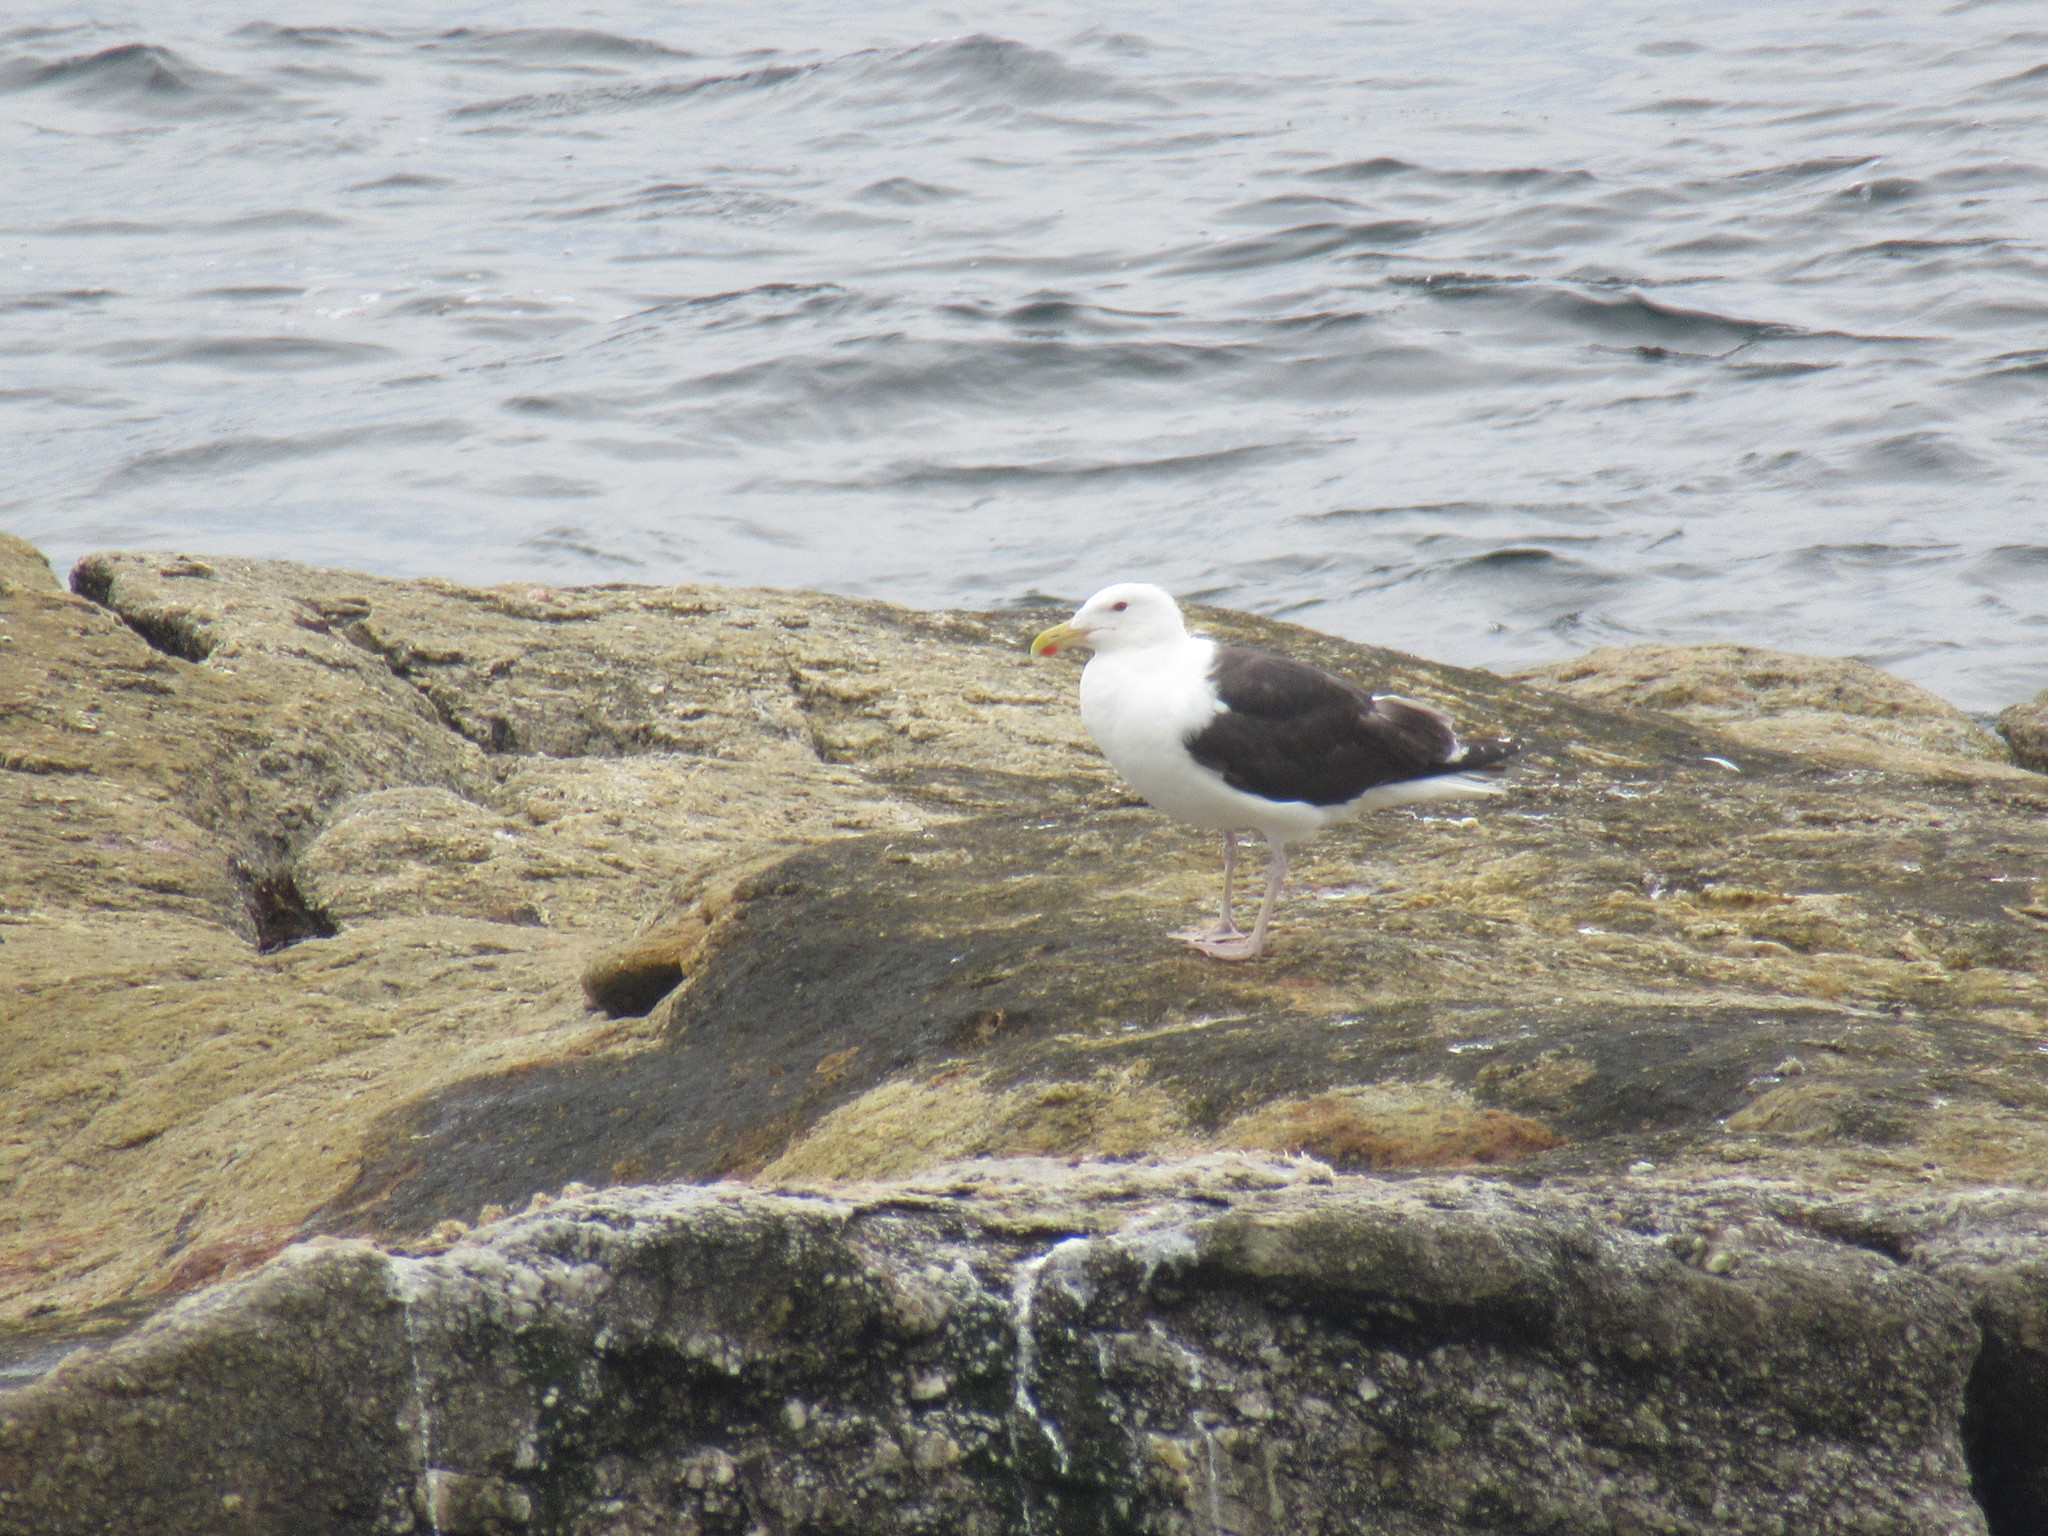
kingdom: Animalia
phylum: Chordata
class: Aves
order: Charadriiformes
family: Laridae
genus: Larus
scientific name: Larus marinus
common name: Great black-backed gull
